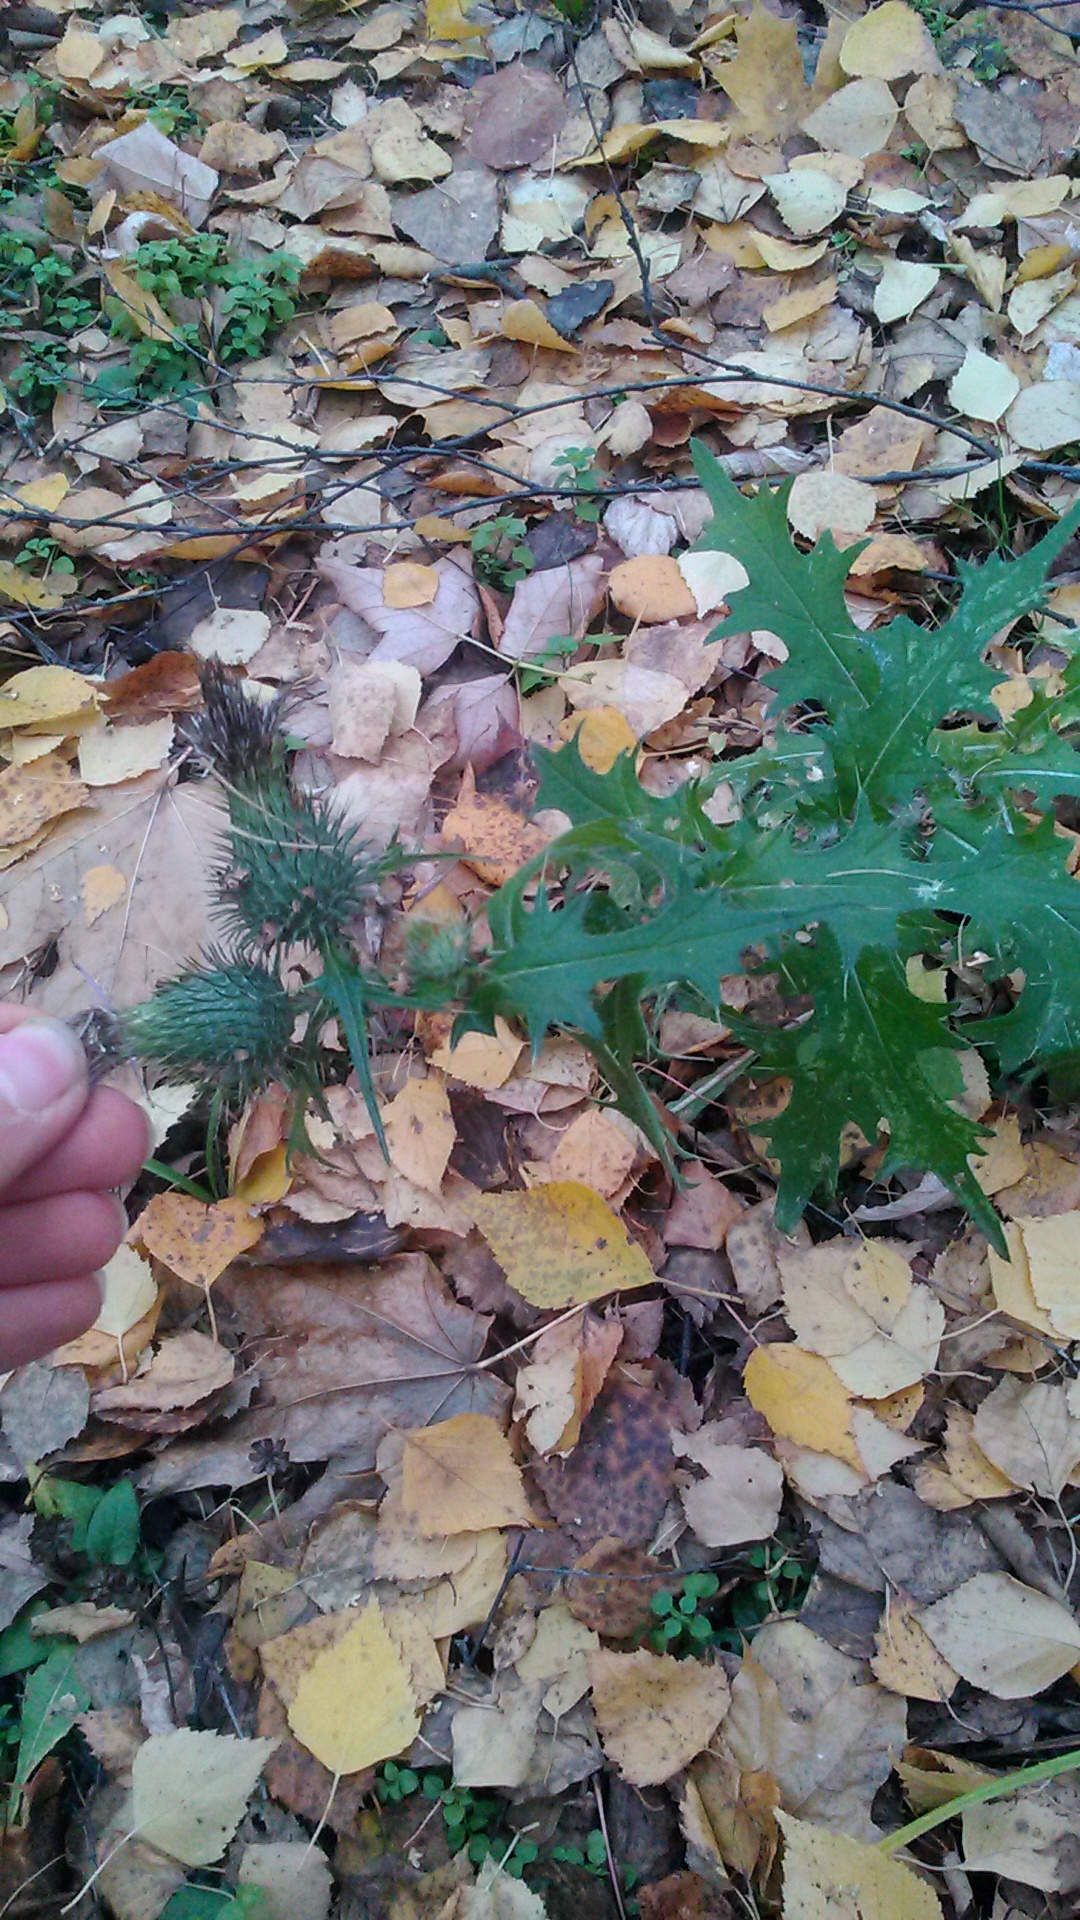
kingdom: Plantae
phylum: Tracheophyta
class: Magnoliopsida
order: Asterales
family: Asteraceae
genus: Cirsium
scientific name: Cirsium vulgare
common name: Bull thistle
